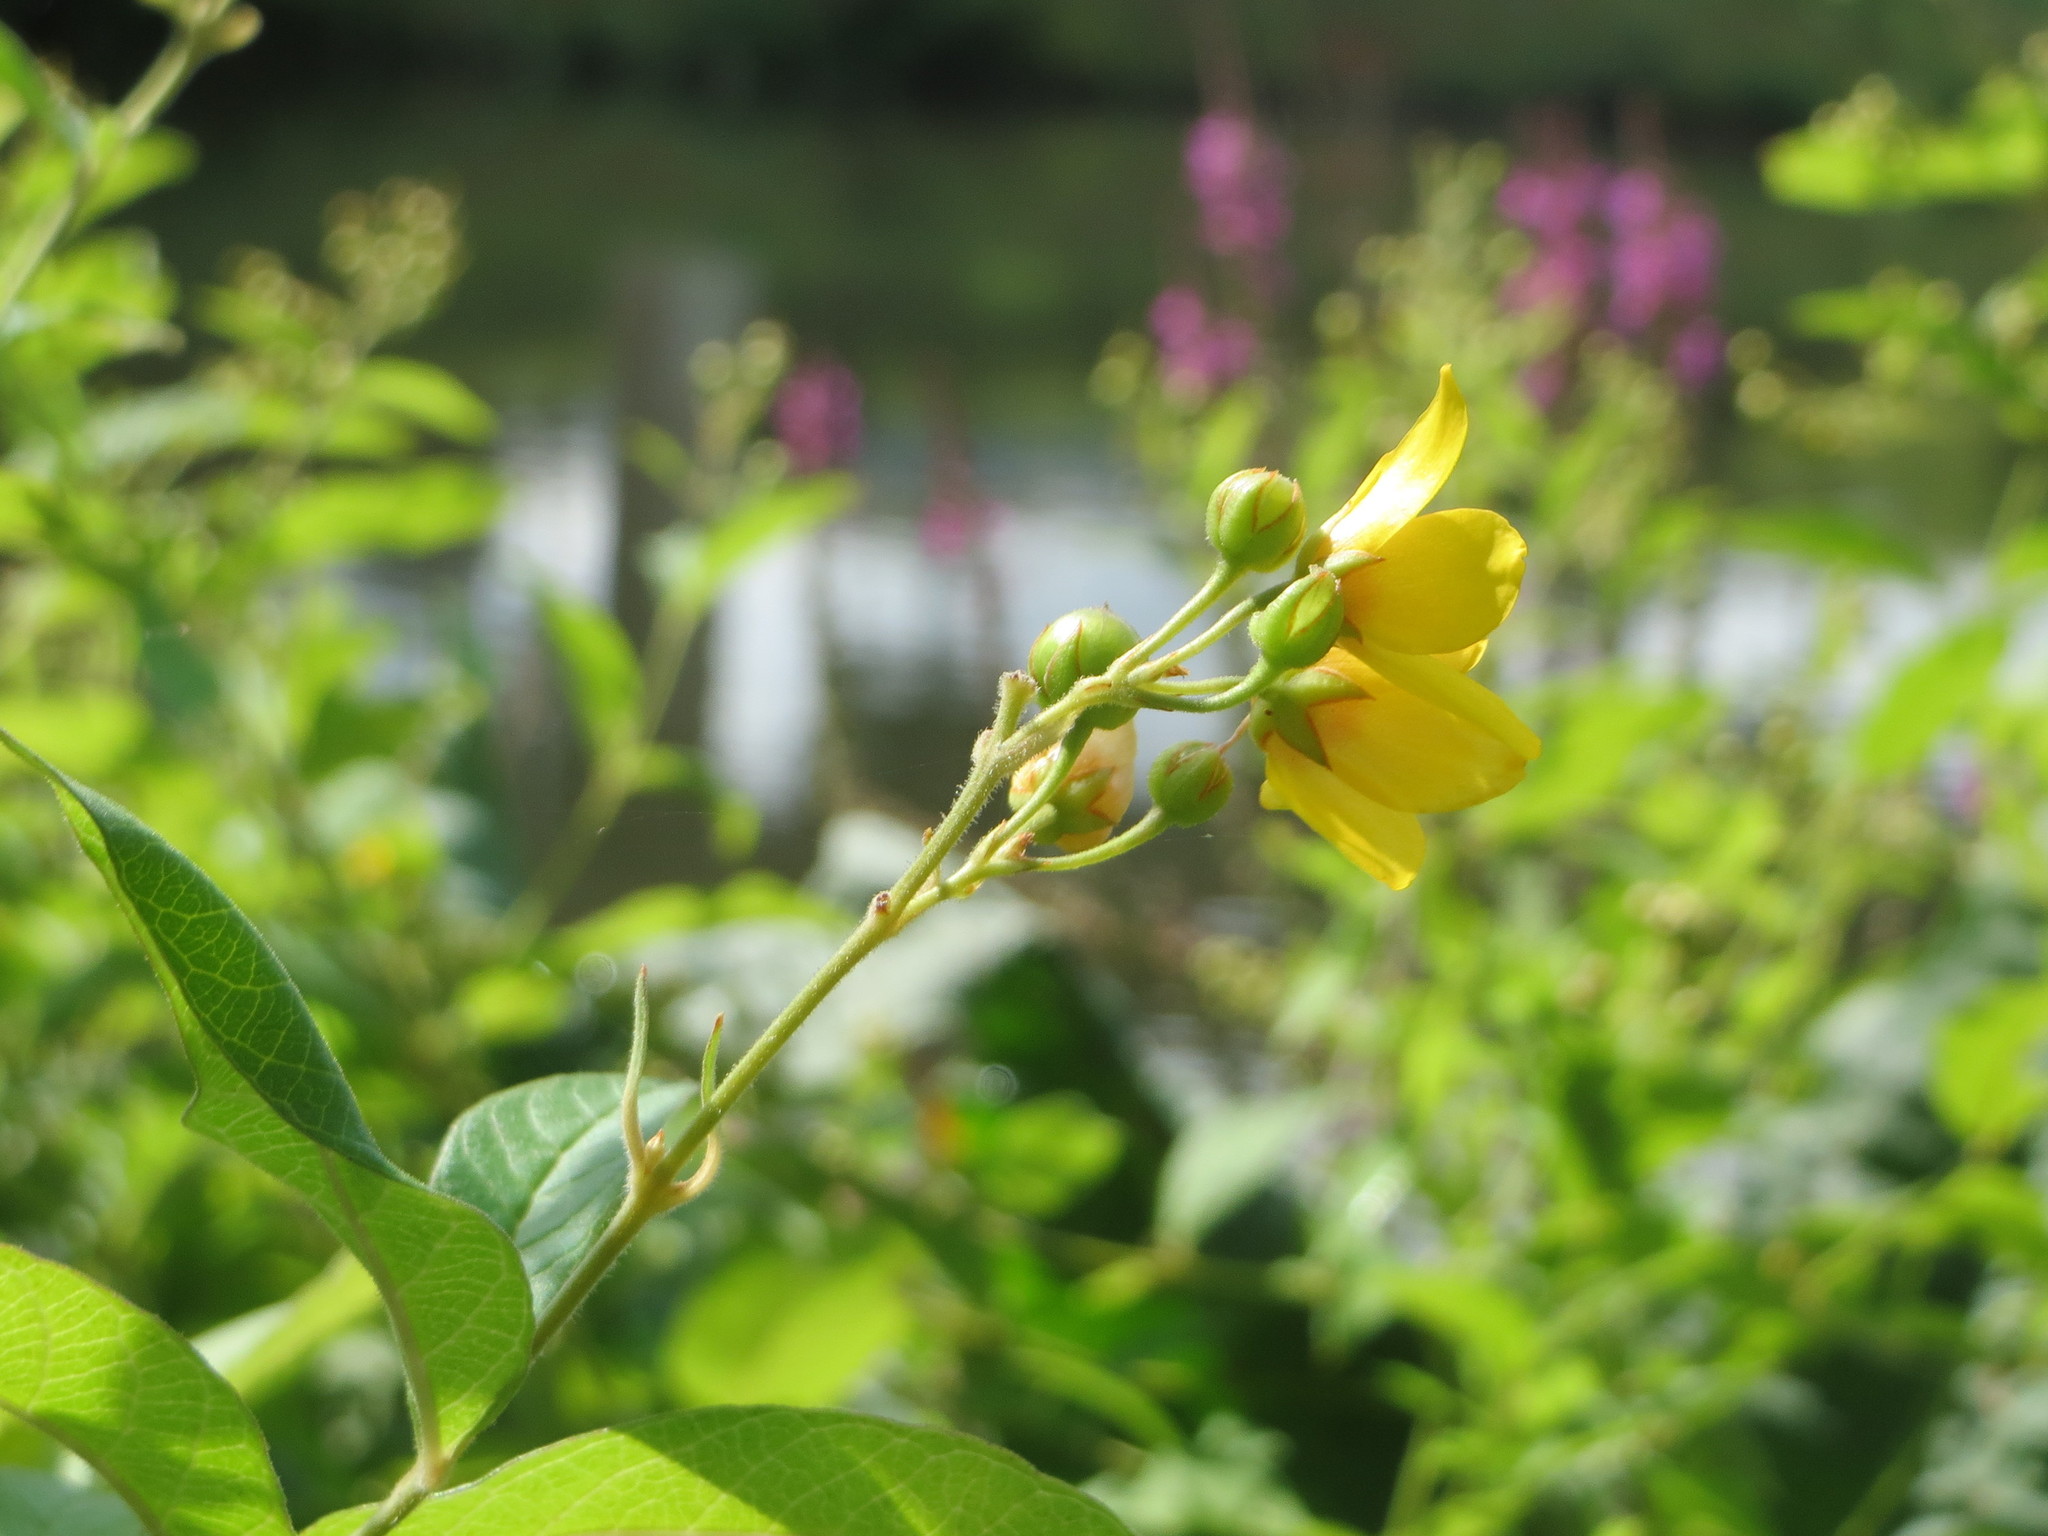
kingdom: Plantae
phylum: Tracheophyta
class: Magnoliopsida
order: Ericales
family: Primulaceae
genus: Lysimachia
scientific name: Lysimachia vulgaris
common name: Yellow loosestrife
